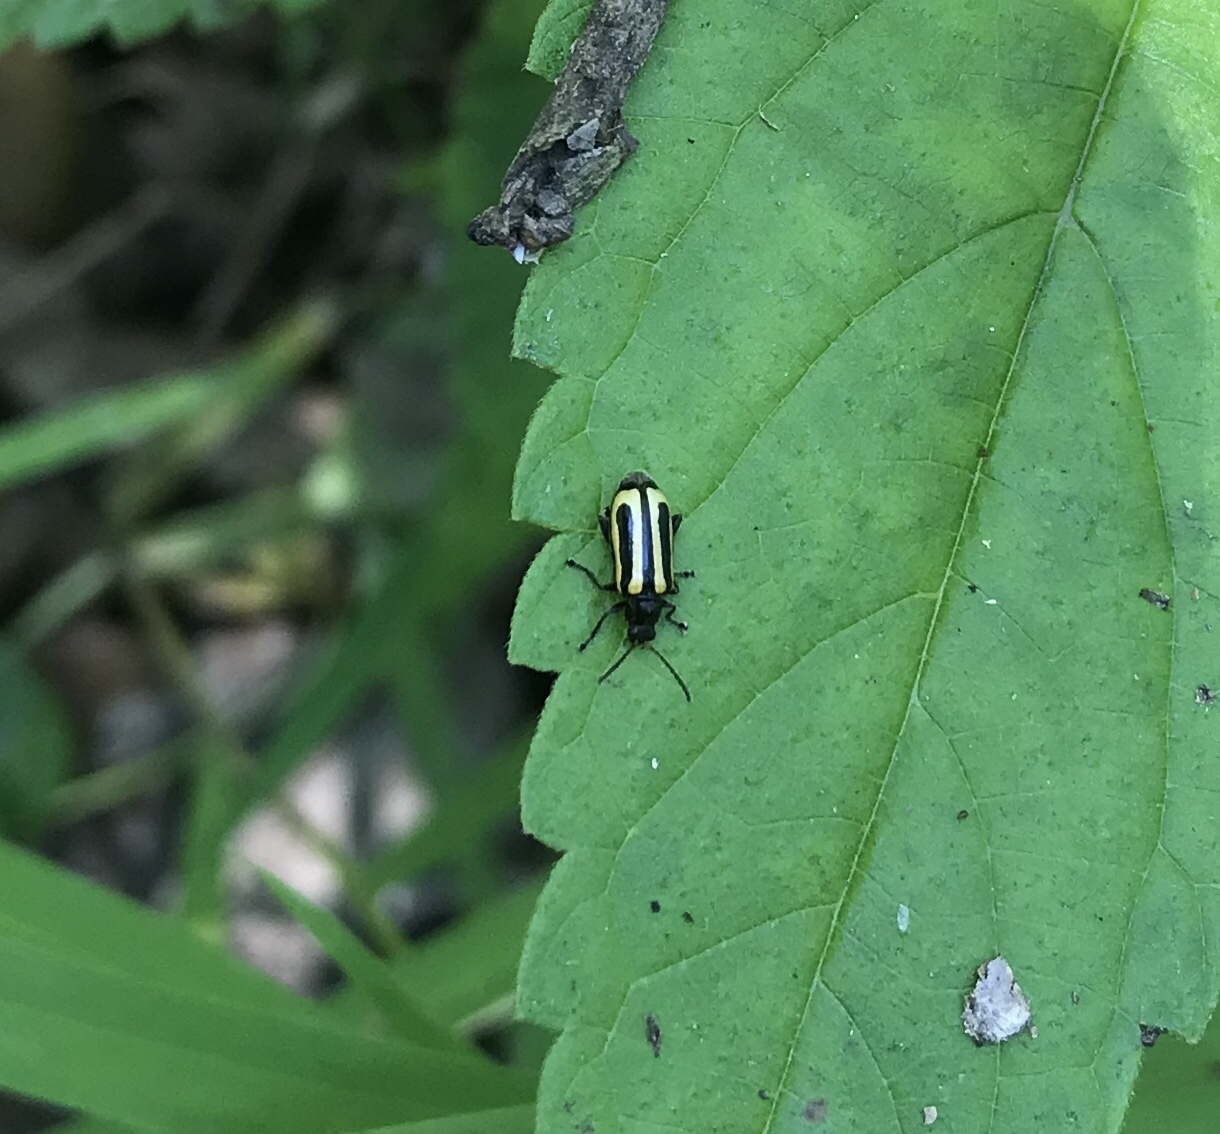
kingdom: Animalia
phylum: Arthropoda
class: Insecta
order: Coleoptera
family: Chrysomelidae
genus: Agasicles
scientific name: Agasicles hygrophila
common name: Alligatorweed flea beetle
